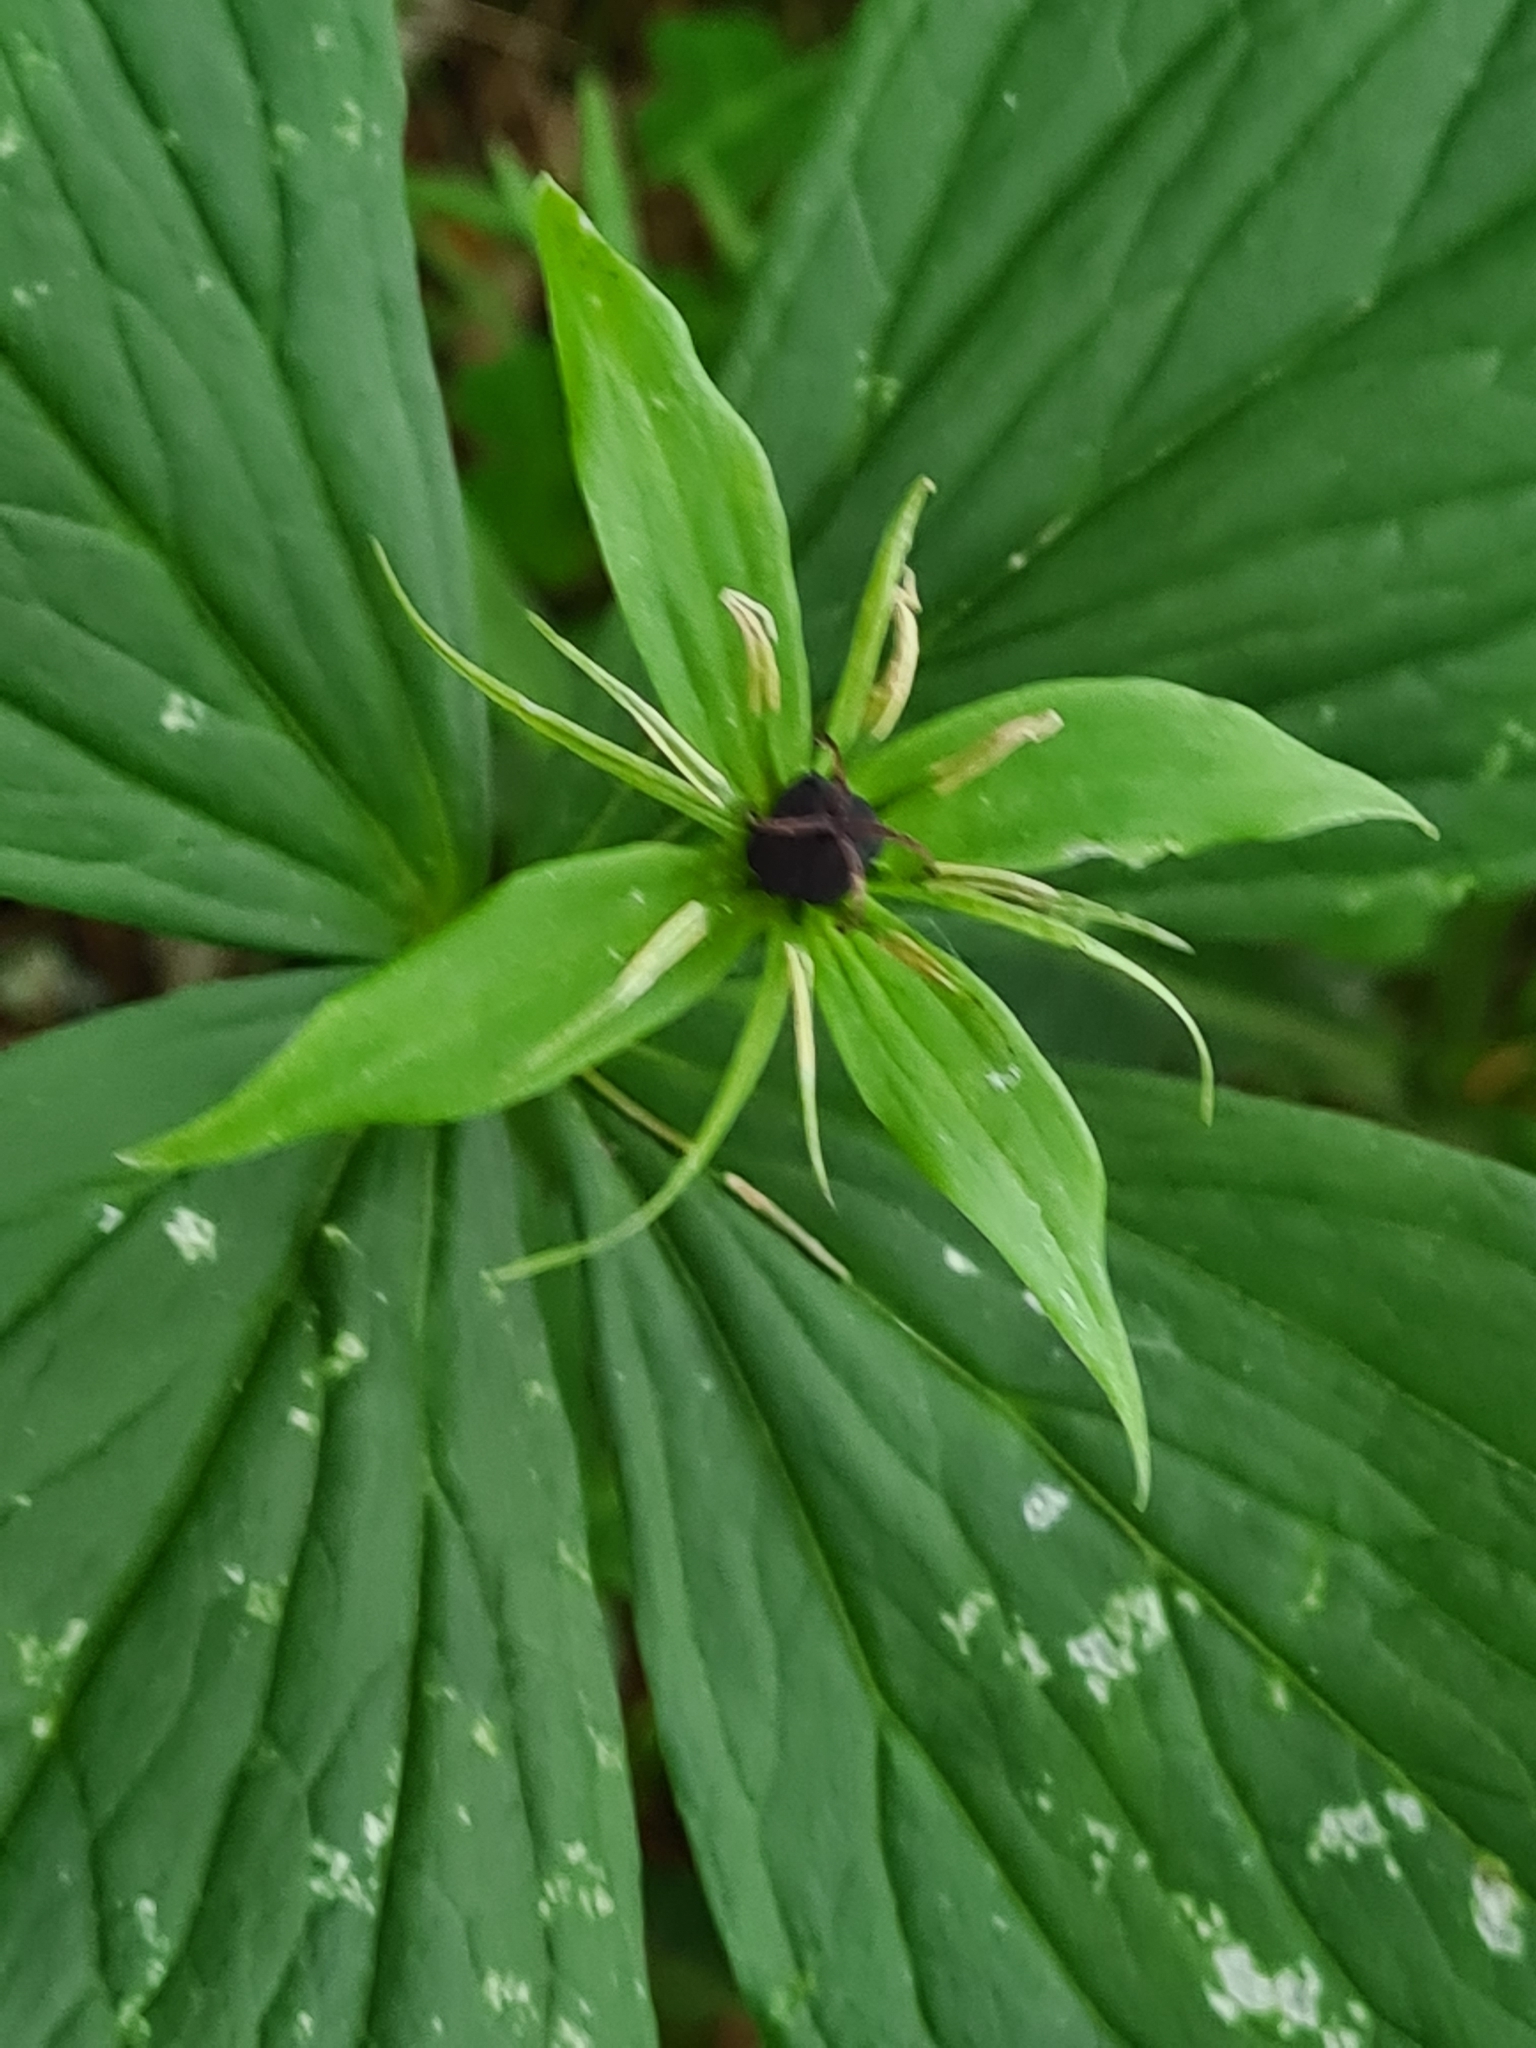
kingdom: Plantae
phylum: Tracheophyta
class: Liliopsida
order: Liliales
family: Melanthiaceae
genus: Paris
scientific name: Paris quadrifolia
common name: Herb-paris
